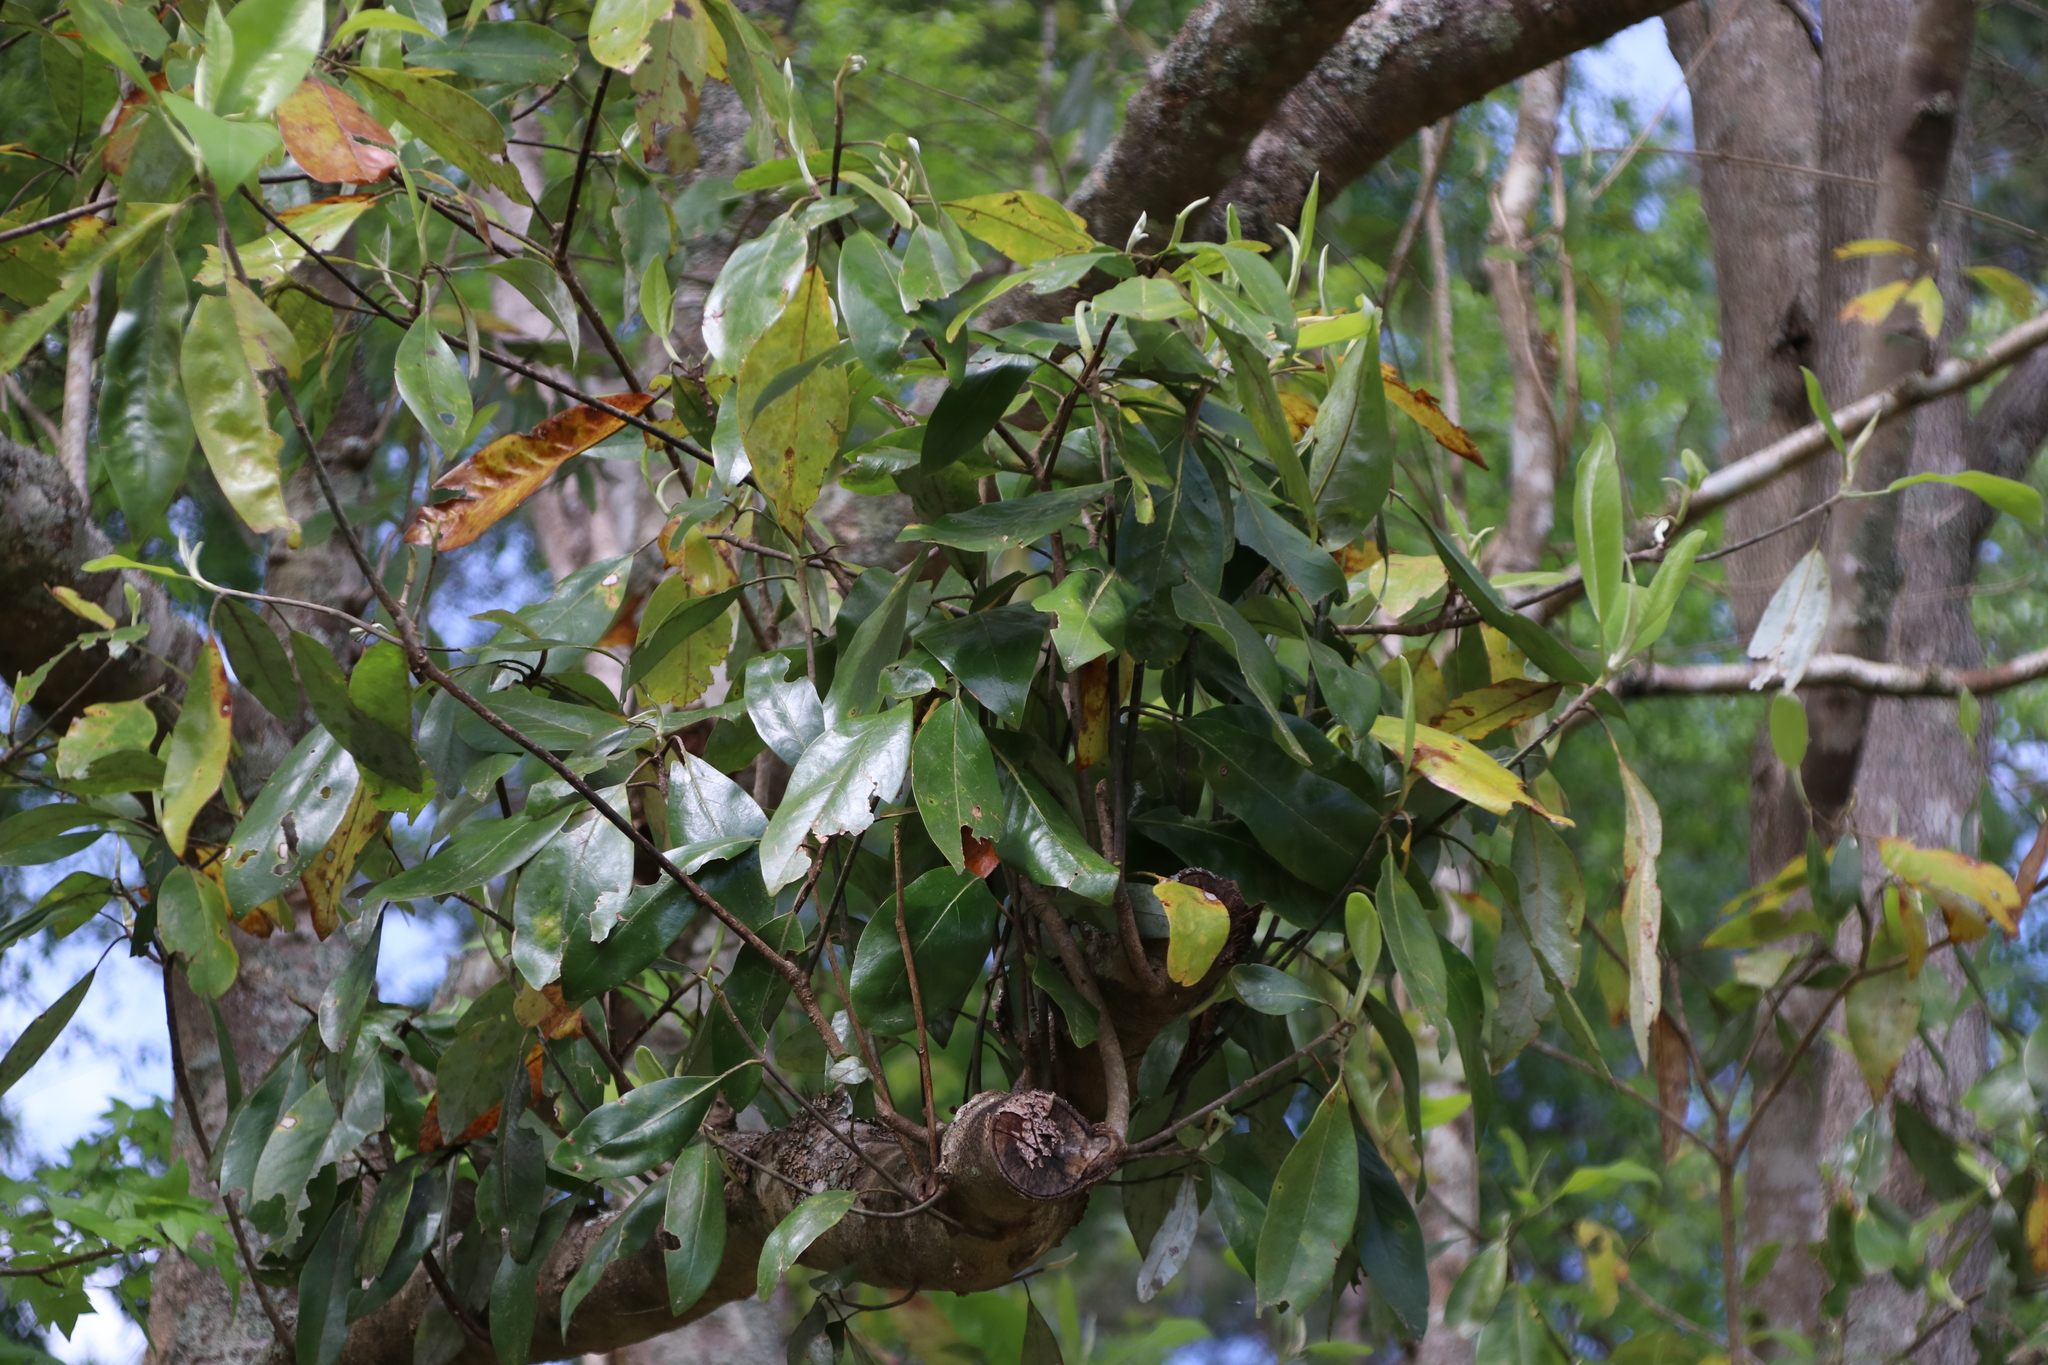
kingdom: Plantae
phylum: Tracheophyta
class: Magnoliopsida
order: Magnoliales
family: Magnoliaceae
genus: Magnolia
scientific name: Magnolia virginiana
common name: Swamp bay
